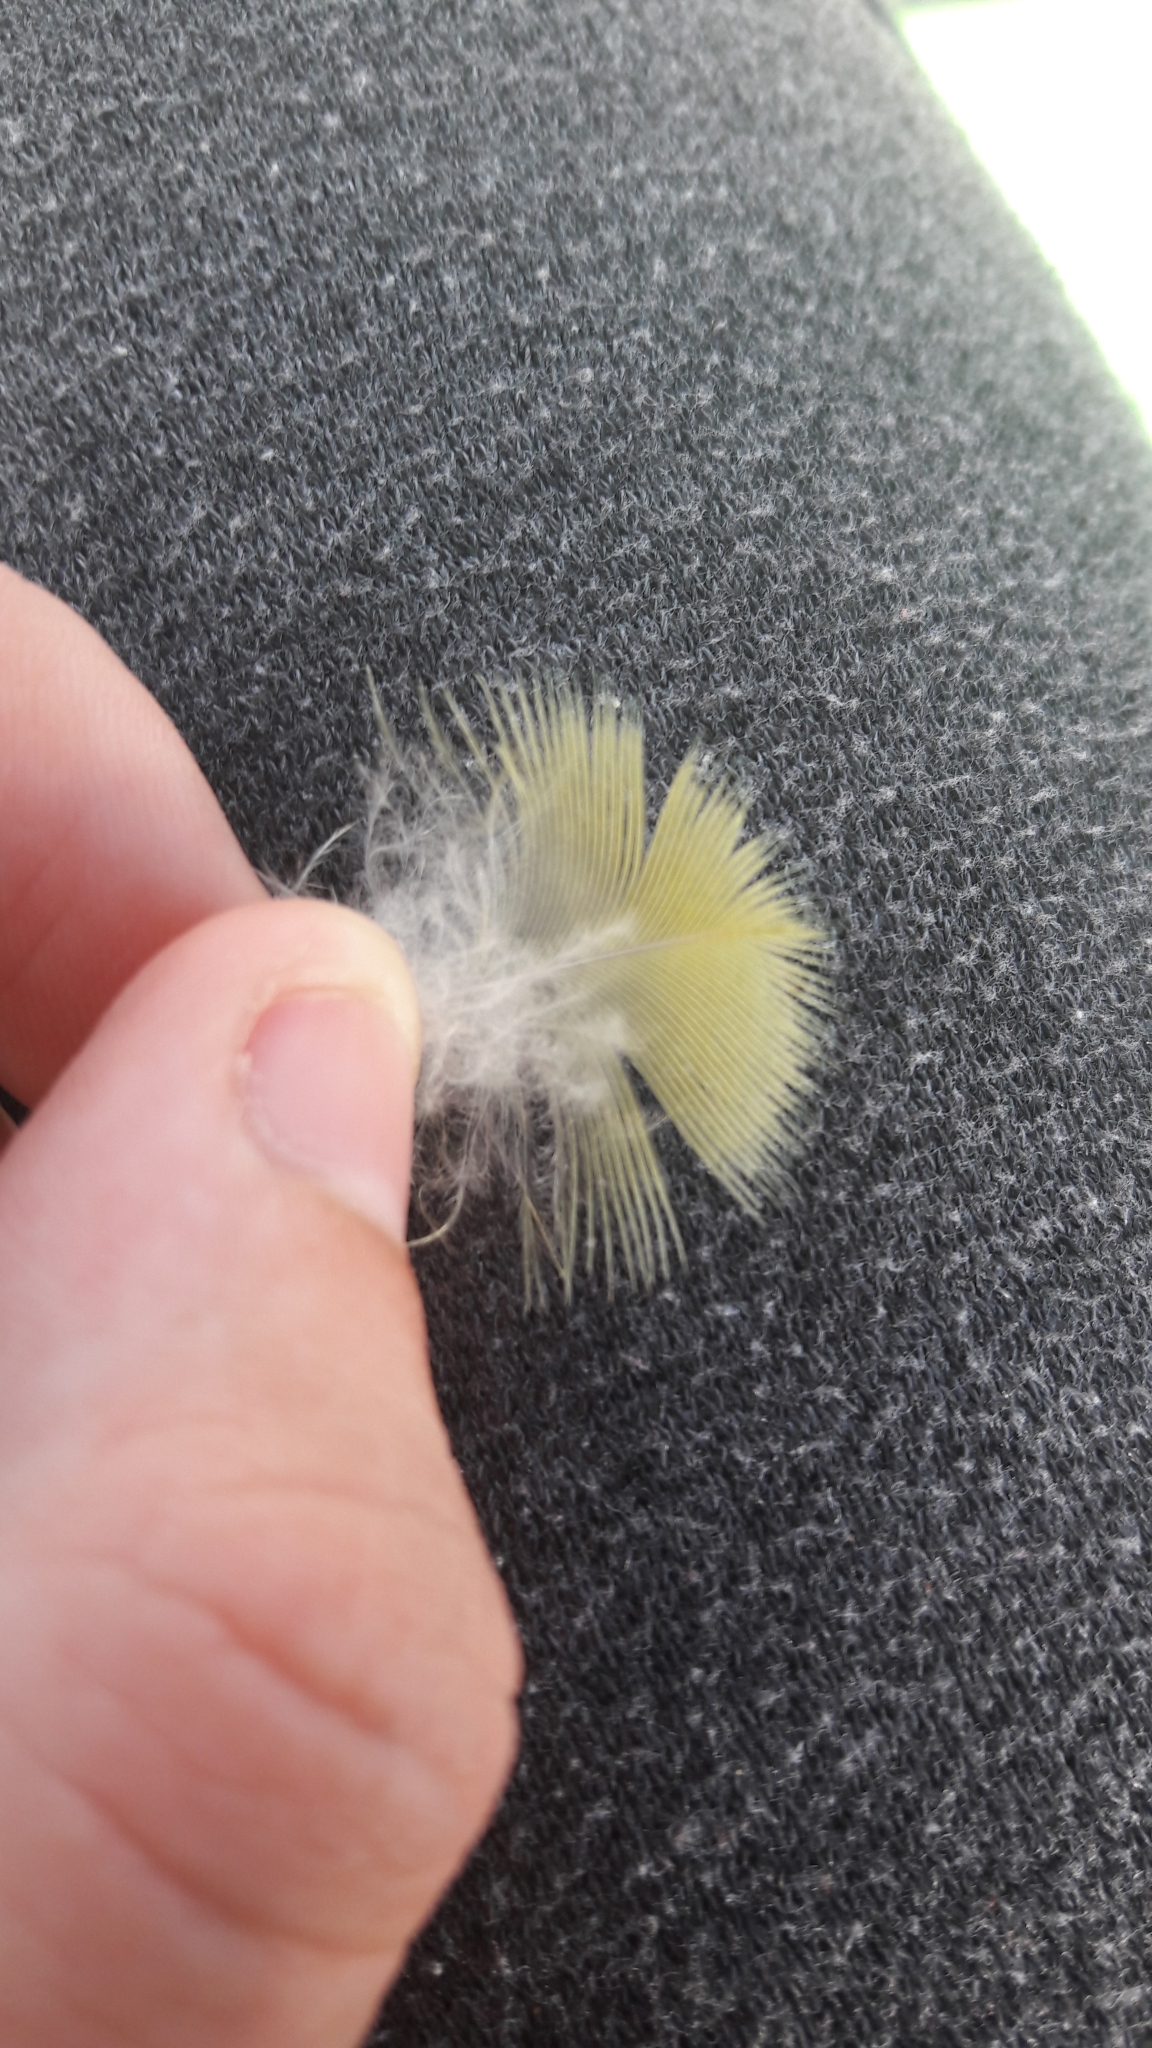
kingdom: Animalia
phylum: Chordata
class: Aves
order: Psittaciformes
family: Psittacidae
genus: Psittacula
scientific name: Psittacula krameri
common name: Rose-ringed parakeet
